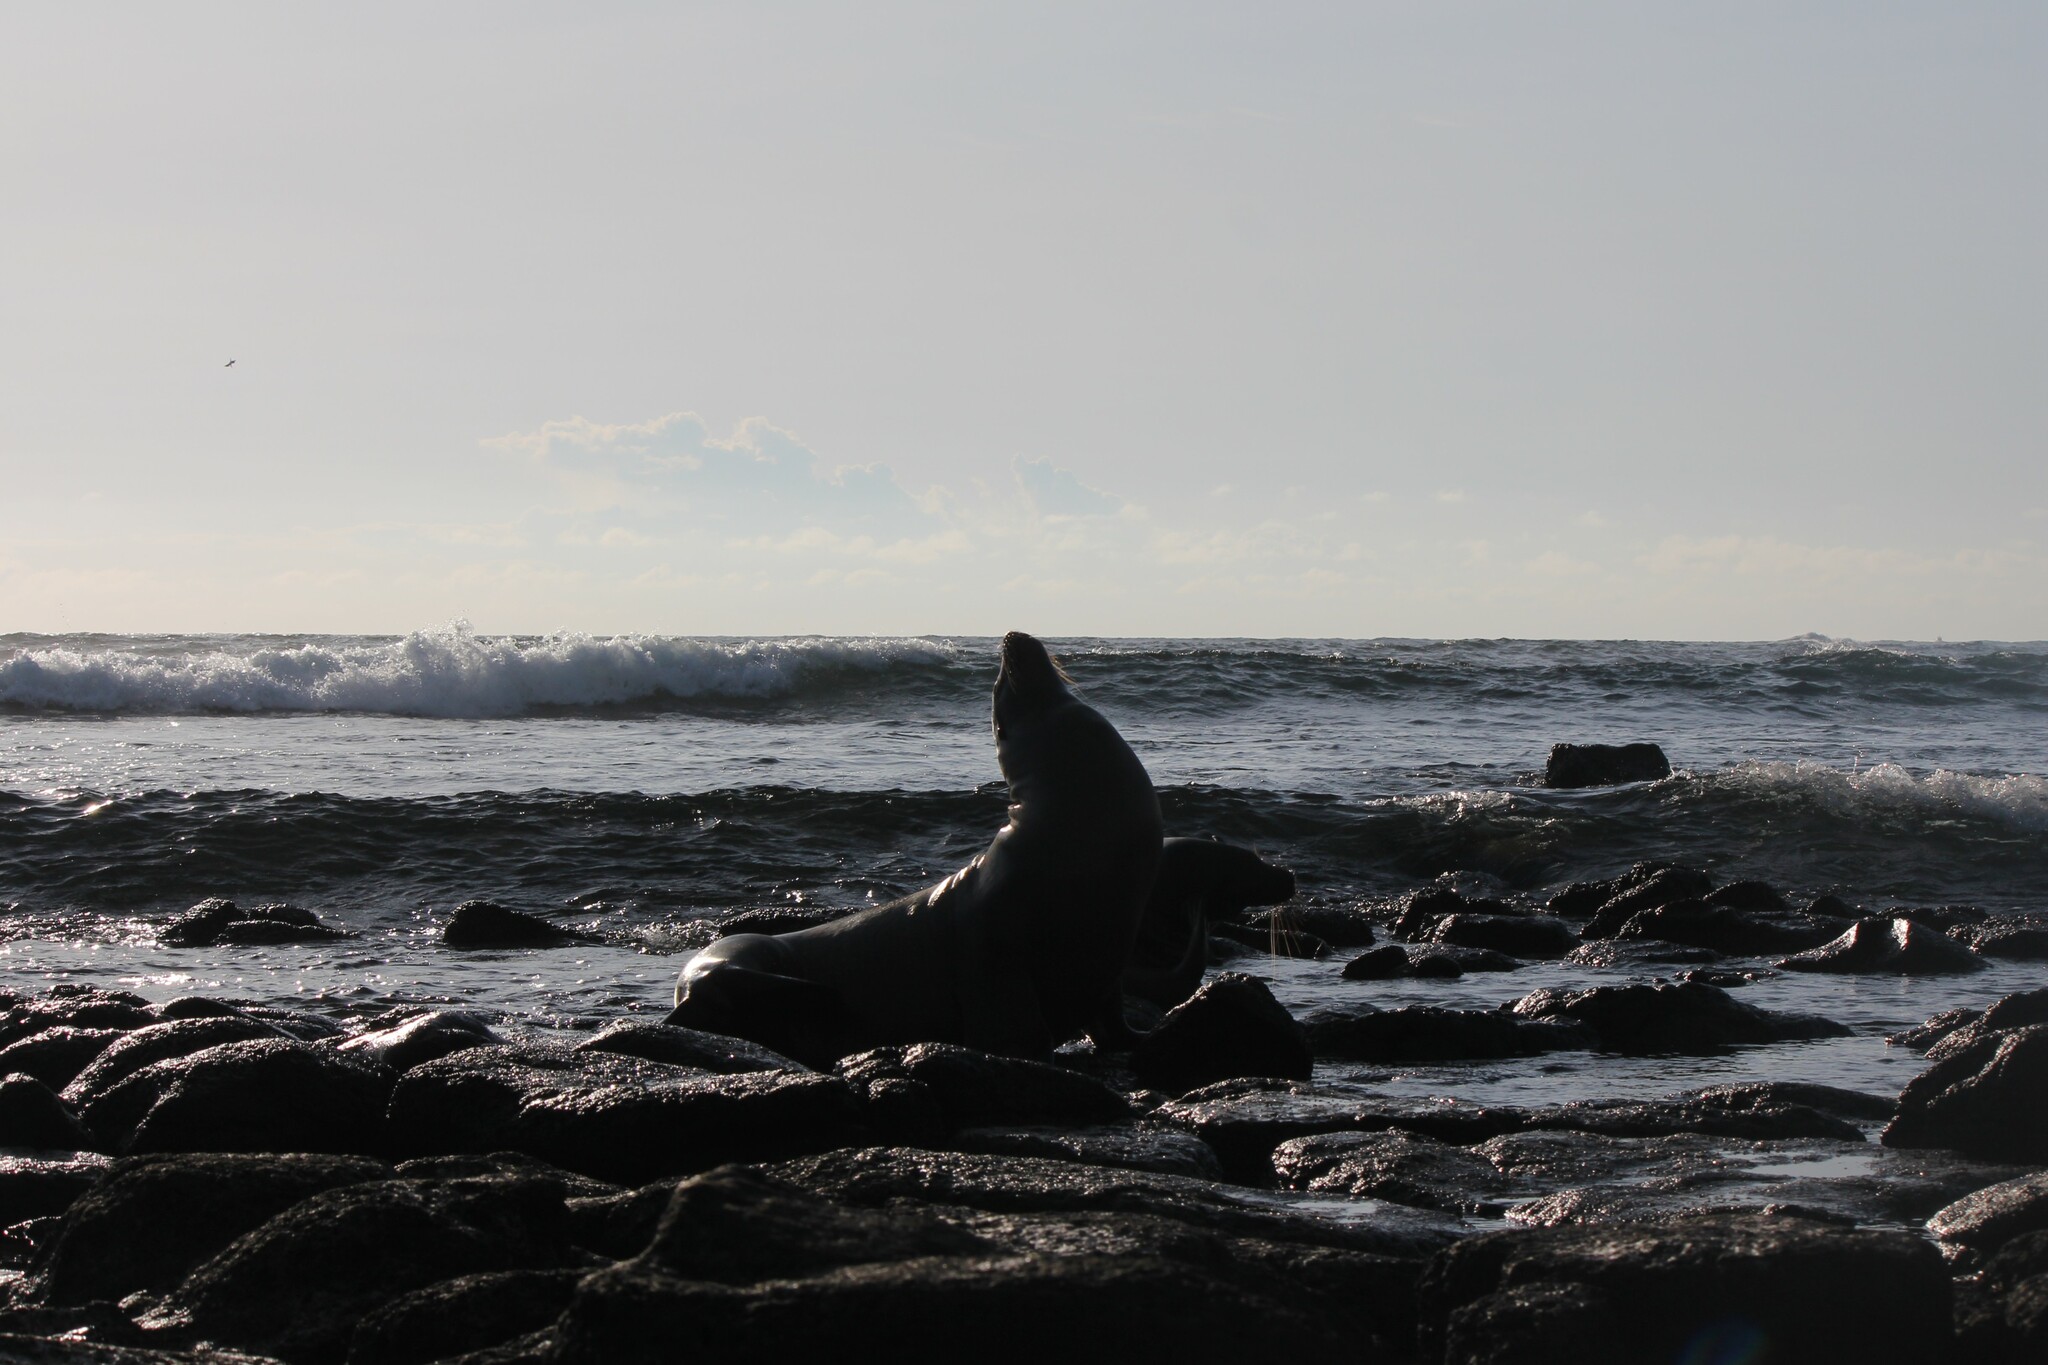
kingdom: Animalia
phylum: Chordata
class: Mammalia
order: Carnivora
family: Otariidae
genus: Zalophus
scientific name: Zalophus wollebaeki
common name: Galapagos sea lion
